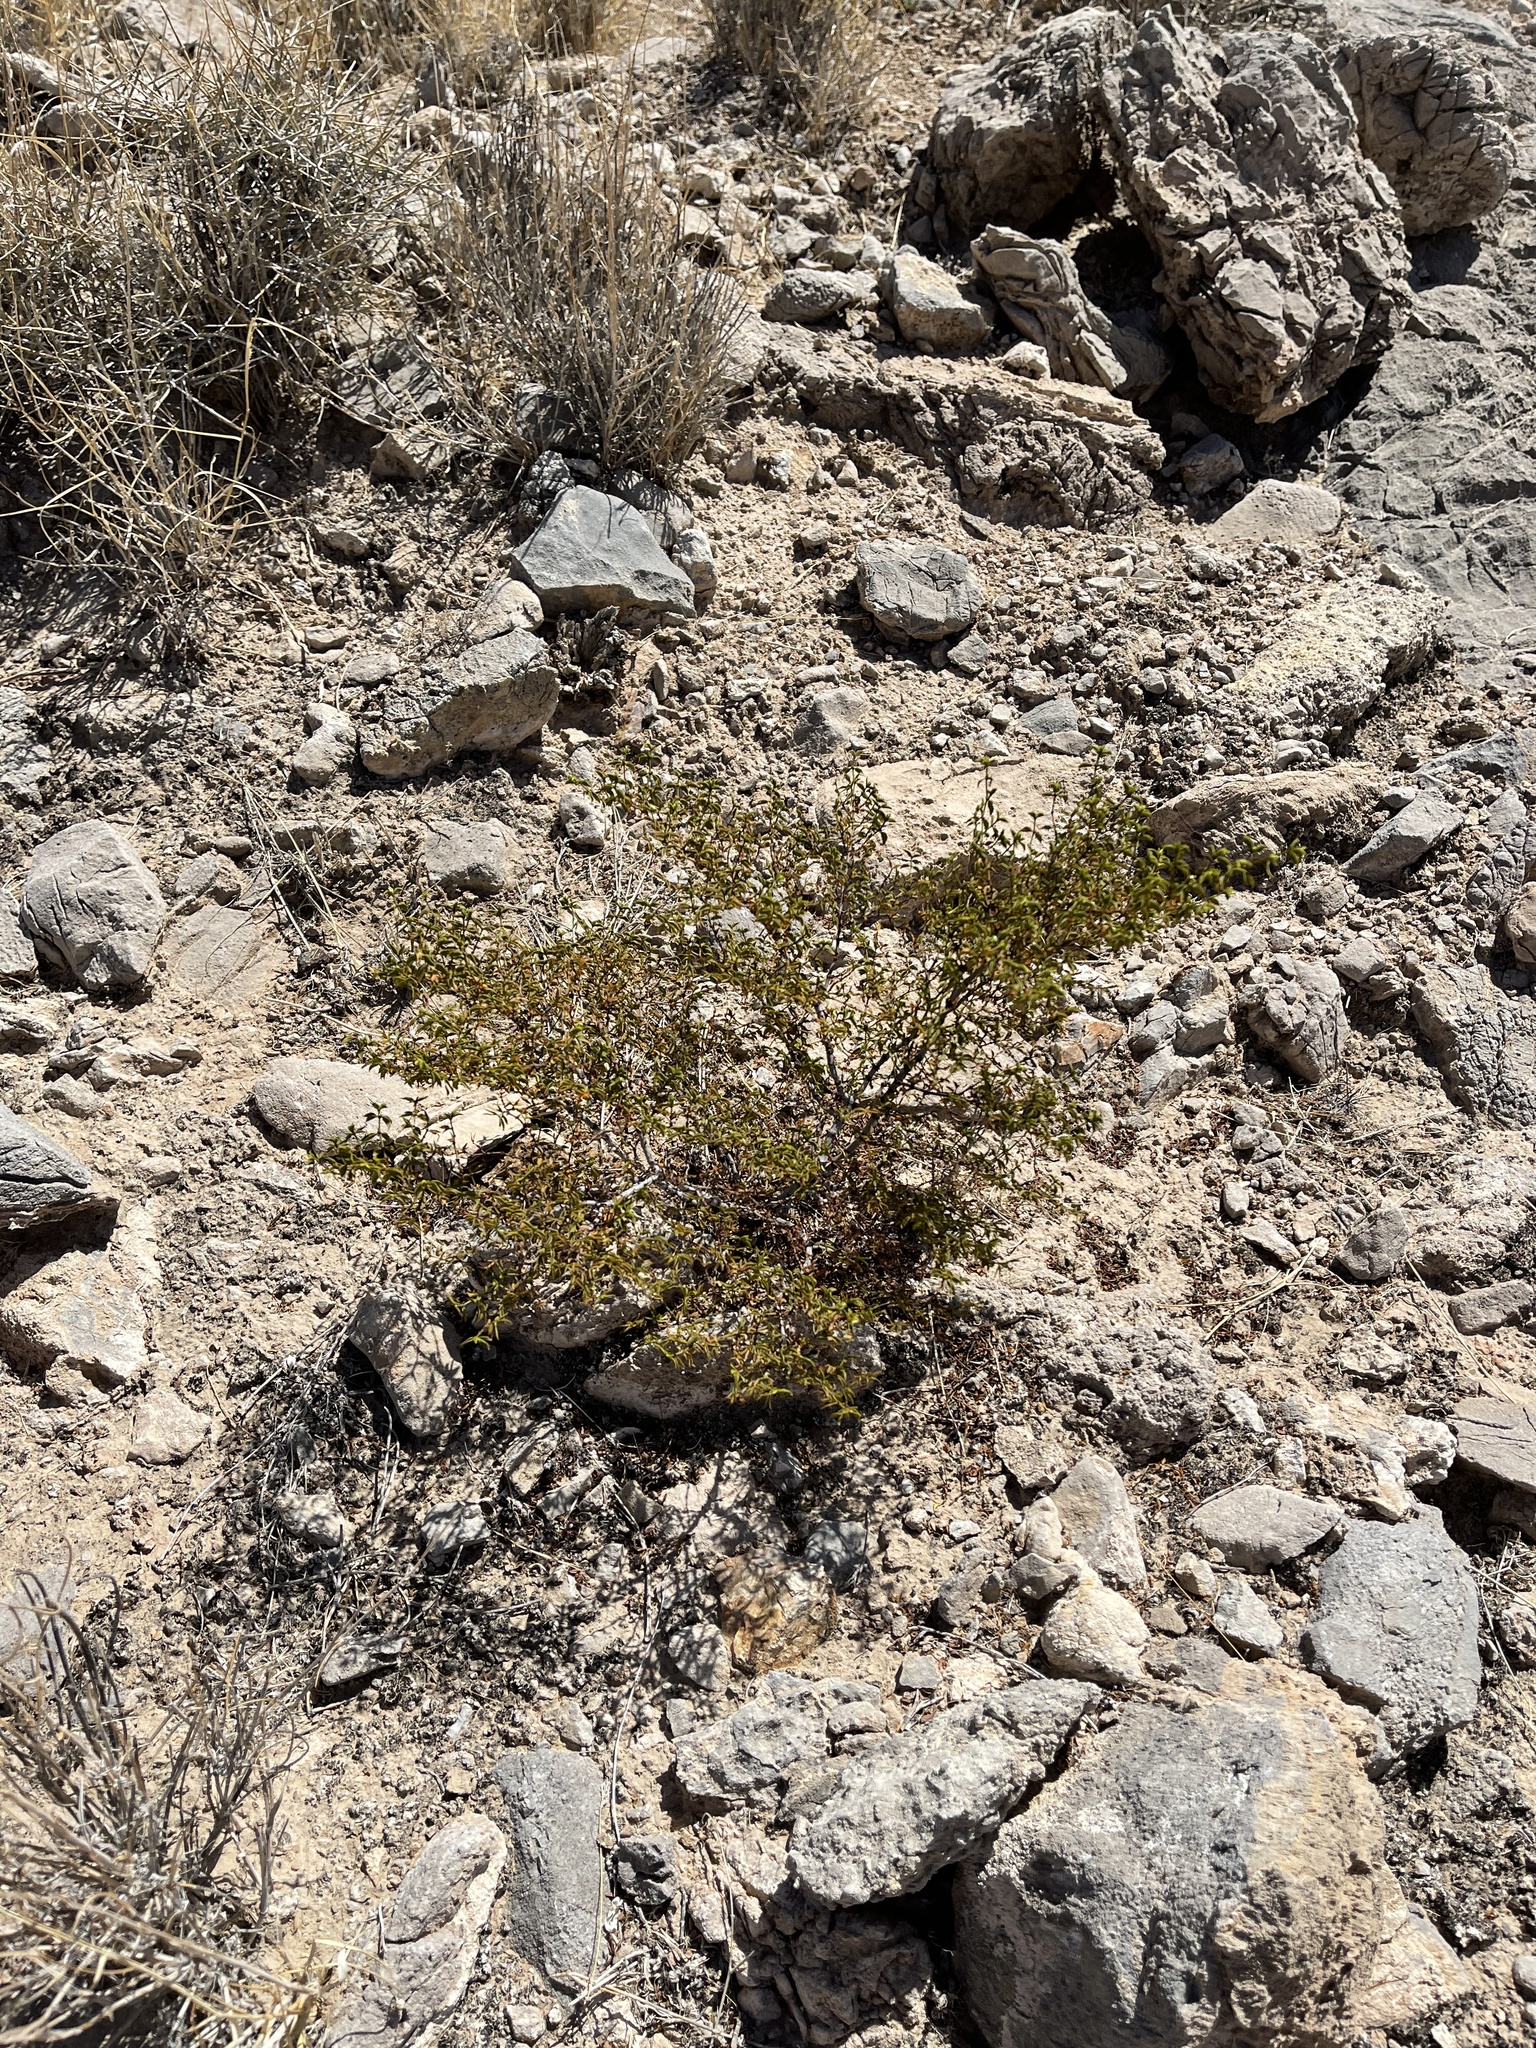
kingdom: Plantae
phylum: Tracheophyta
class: Magnoliopsida
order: Zygophyllales
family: Zygophyllaceae
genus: Larrea
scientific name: Larrea tridentata
